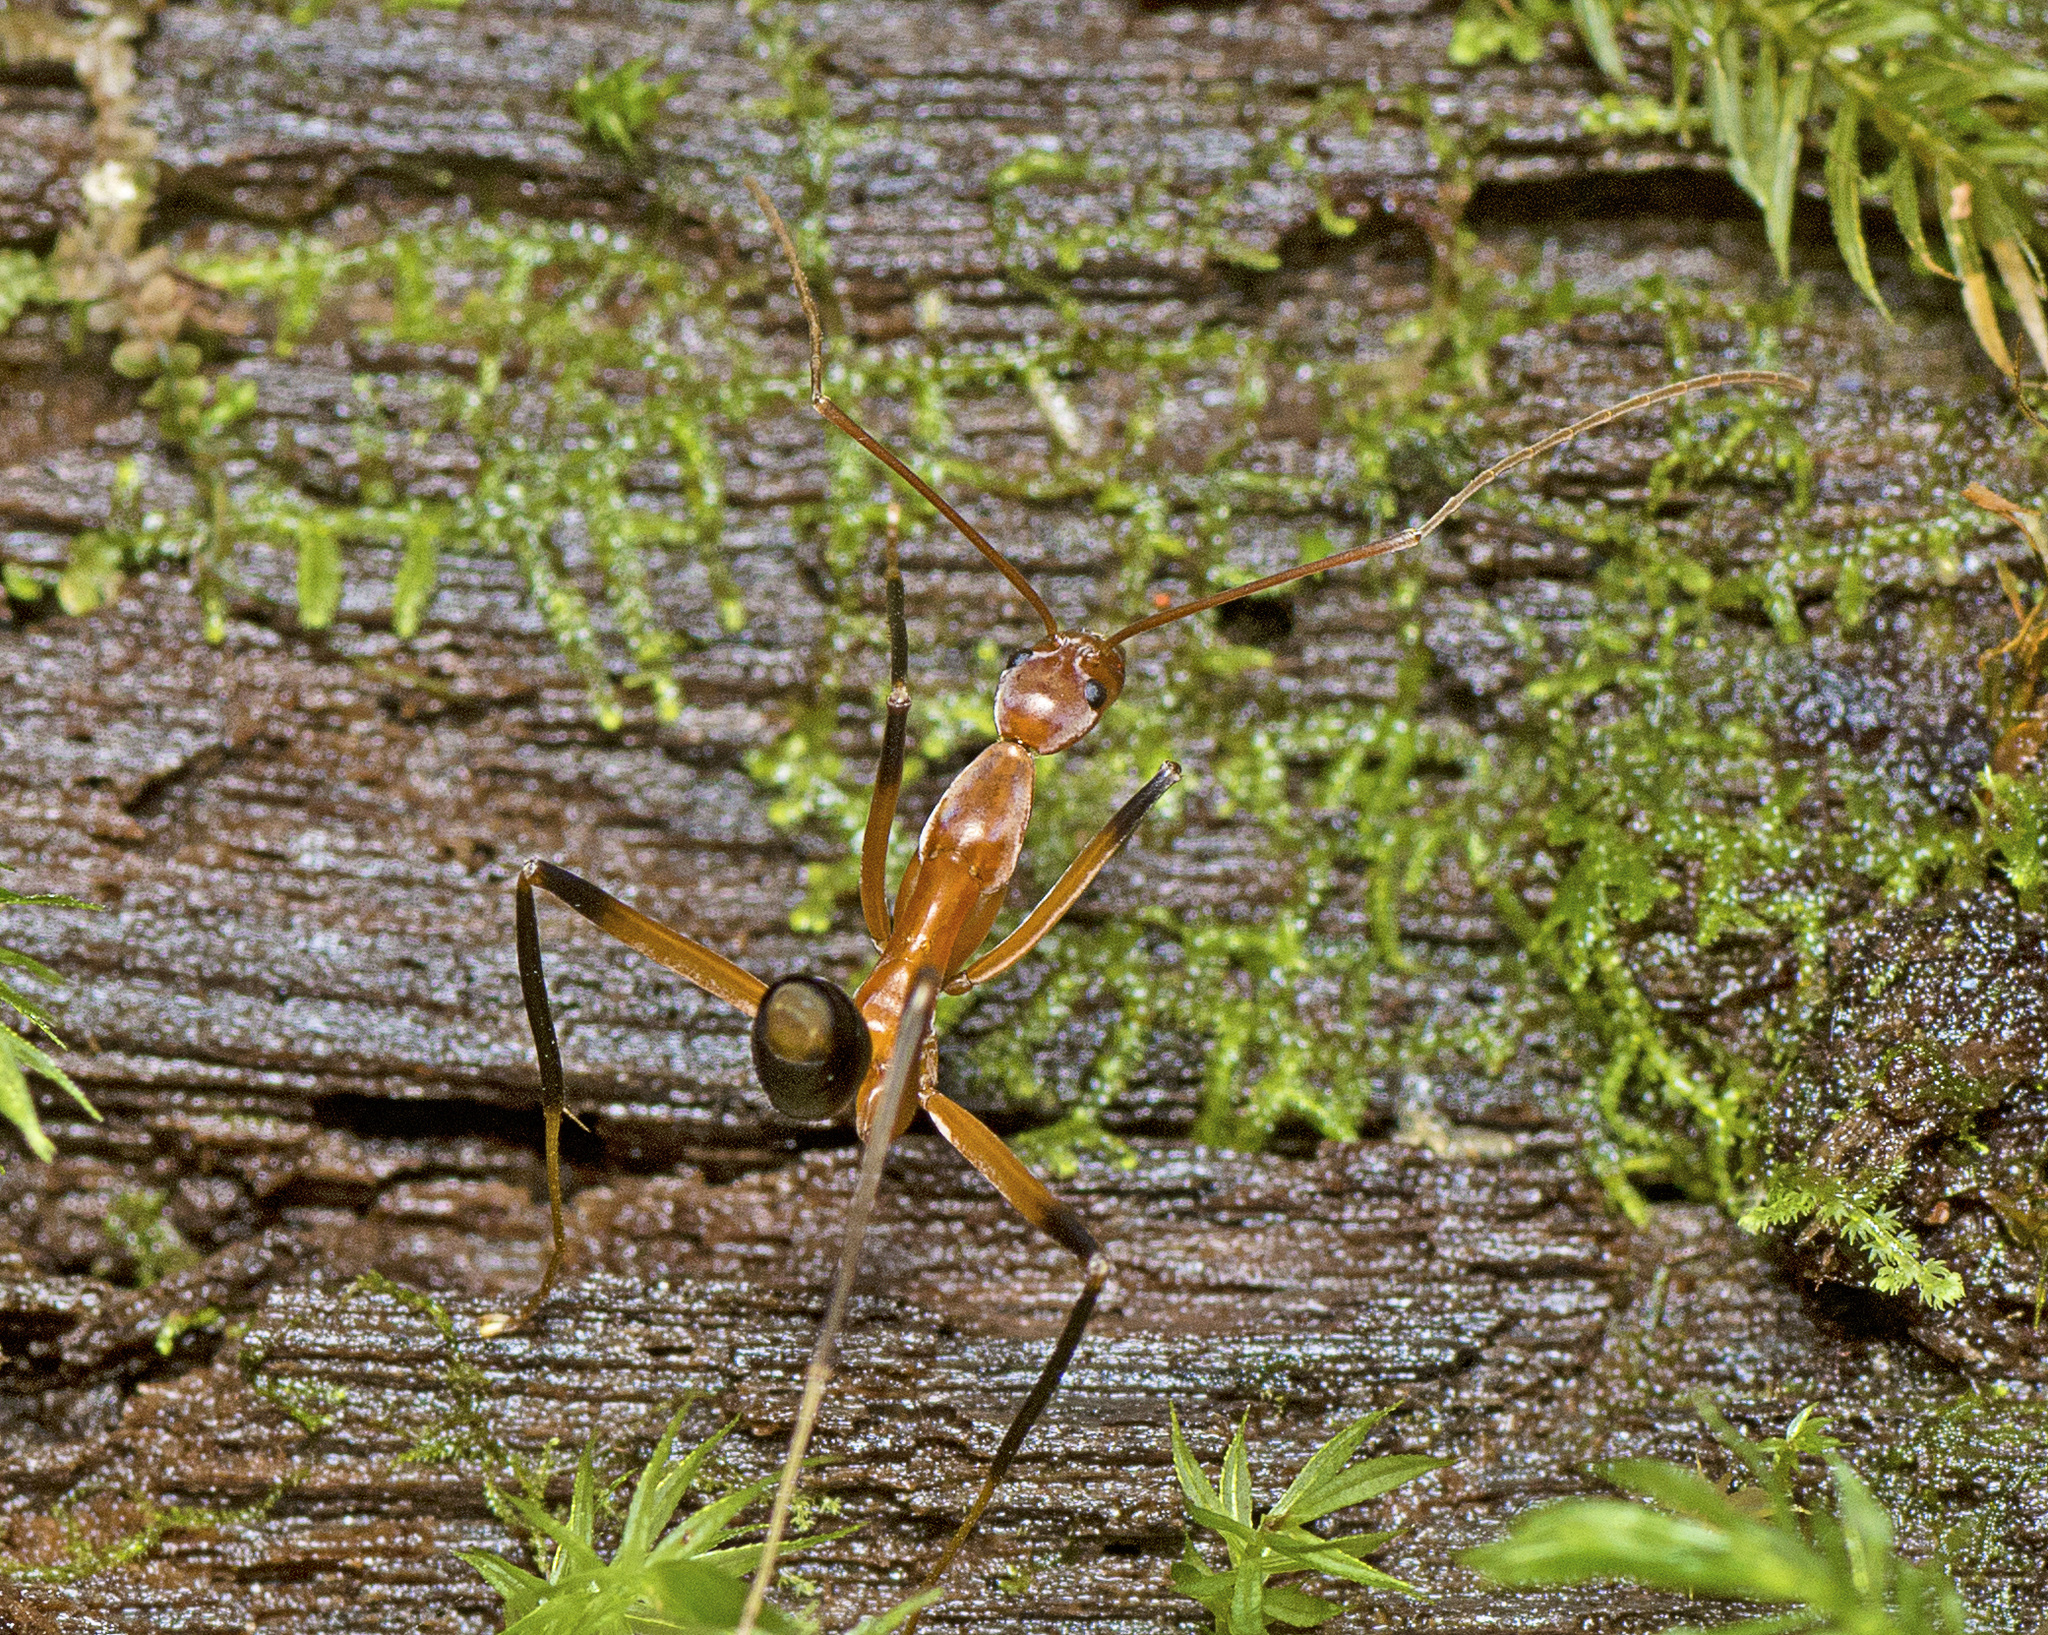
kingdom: Animalia
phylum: Arthropoda
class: Insecta
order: Hymenoptera
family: Formicidae
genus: Leptomyrmex
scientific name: Leptomyrmex cnemidatus
